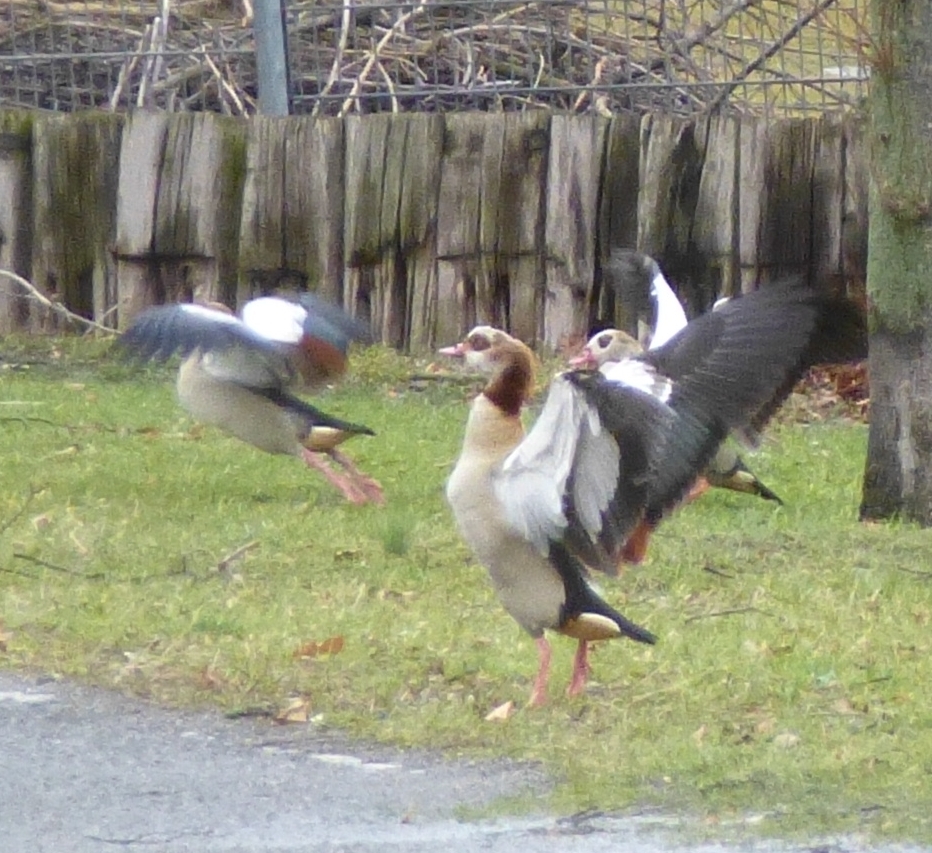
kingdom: Animalia
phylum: Chordata
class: Aves
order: Anseriformes
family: Anatidae
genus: Alopochen
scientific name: Alopochen aegyptiaca
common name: Egyptian goose
